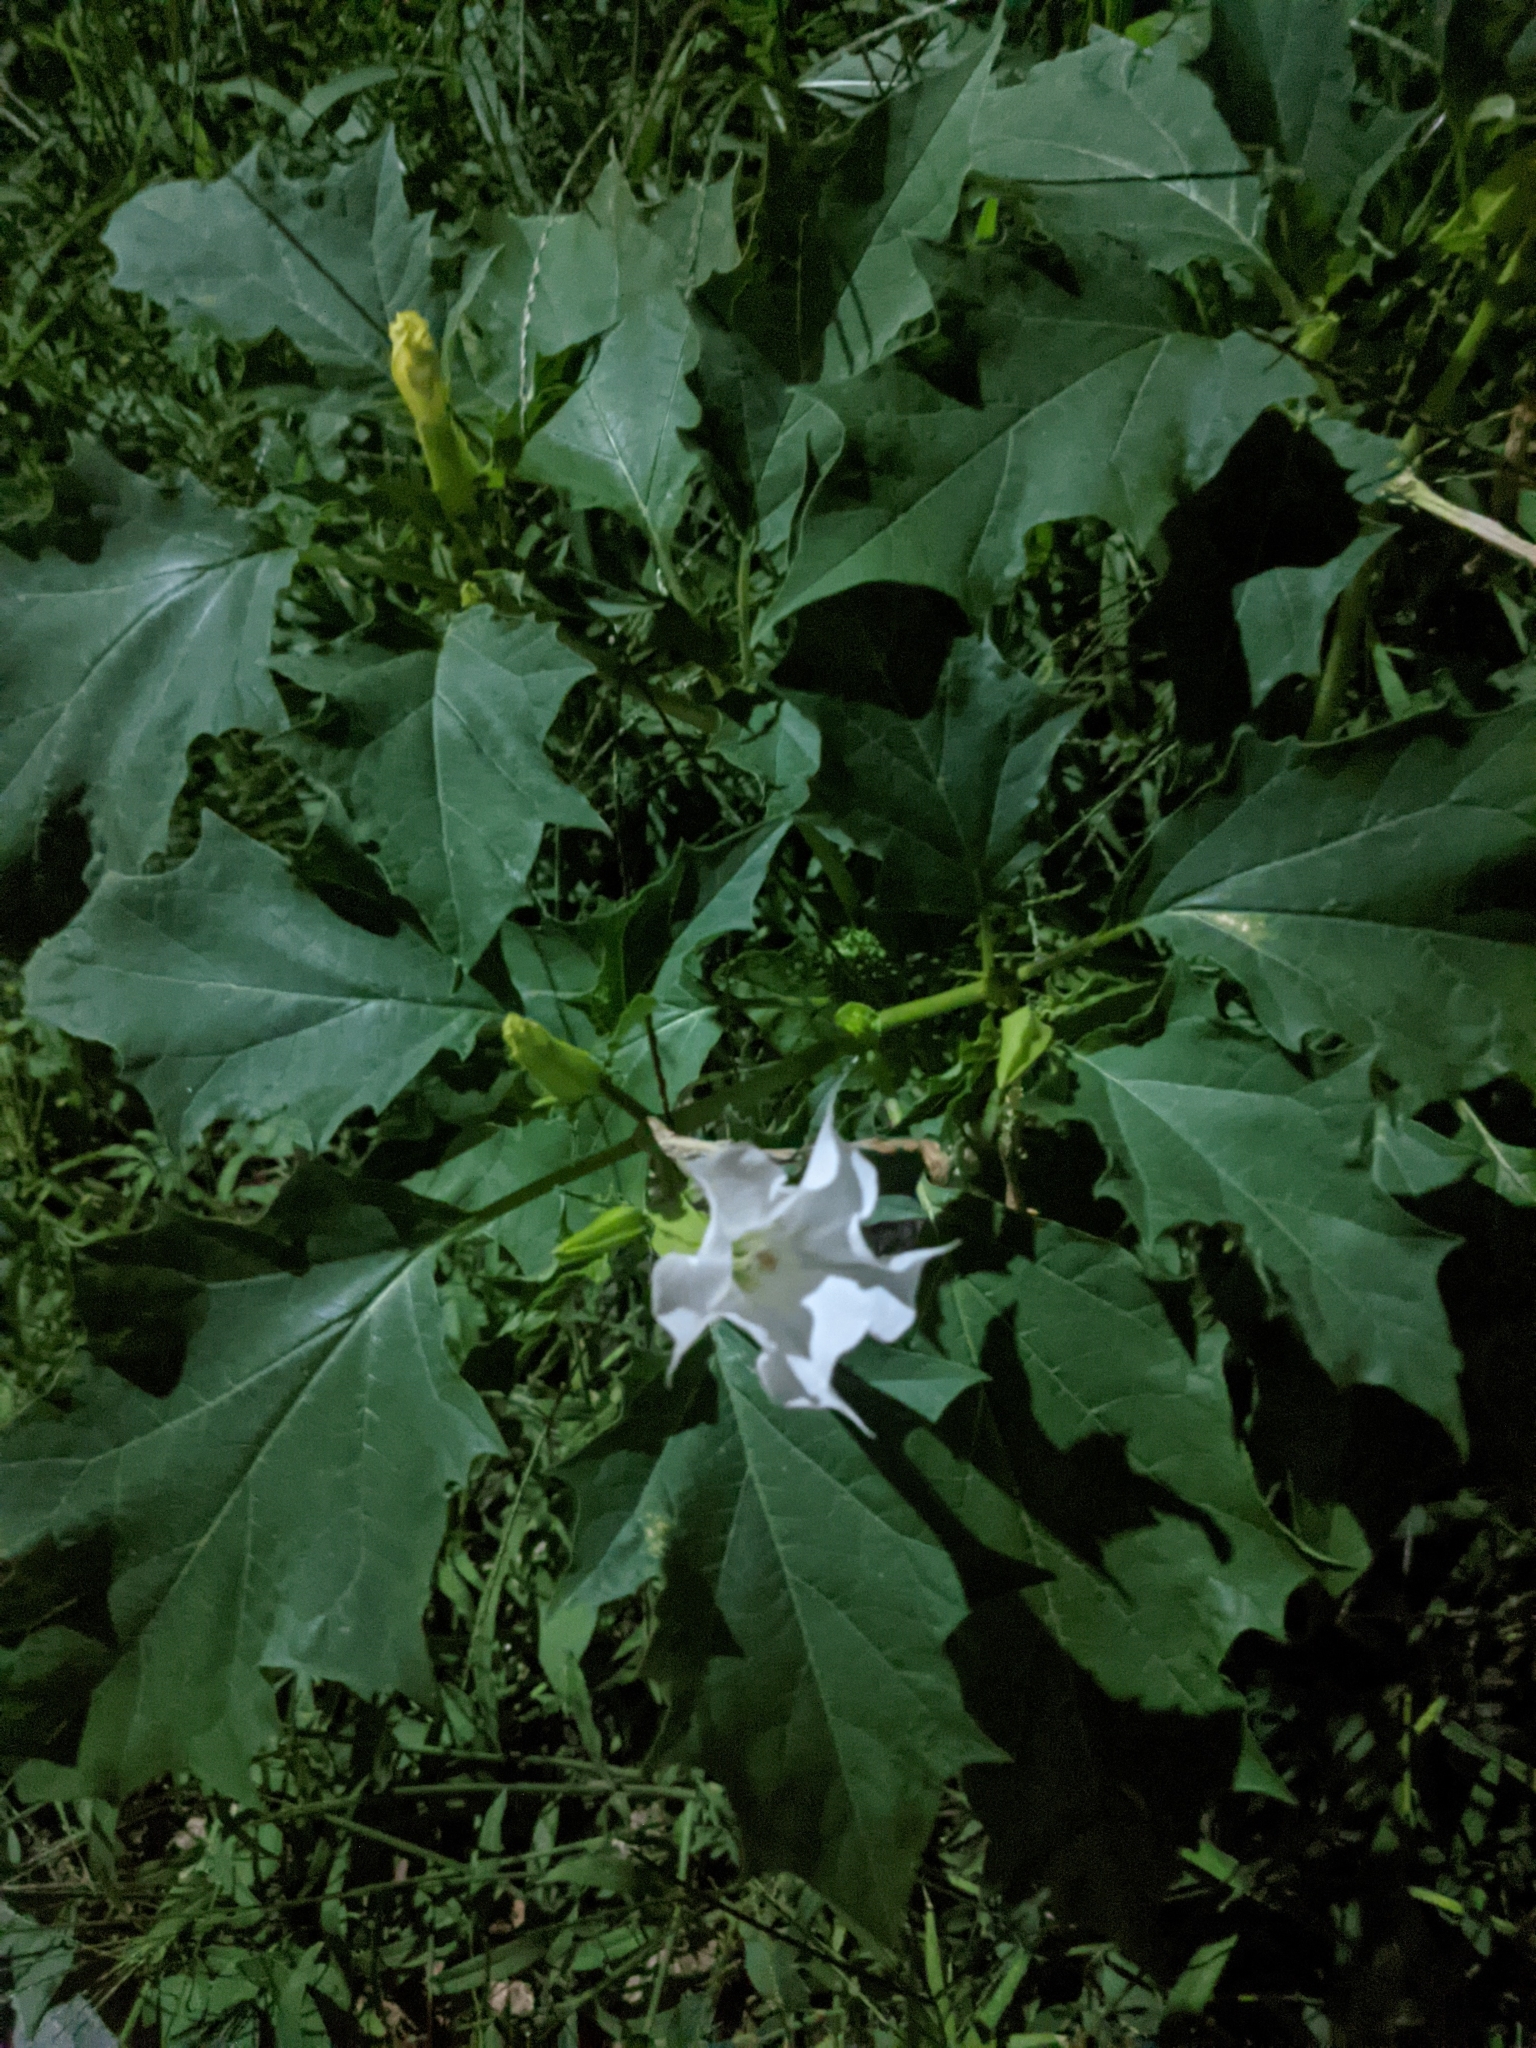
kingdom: Plantae
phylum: Tracheophyta
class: Magnoliopsida
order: Solanales
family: Solanaceae
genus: Datura
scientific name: Datura stramonium
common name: Thorn-apple
